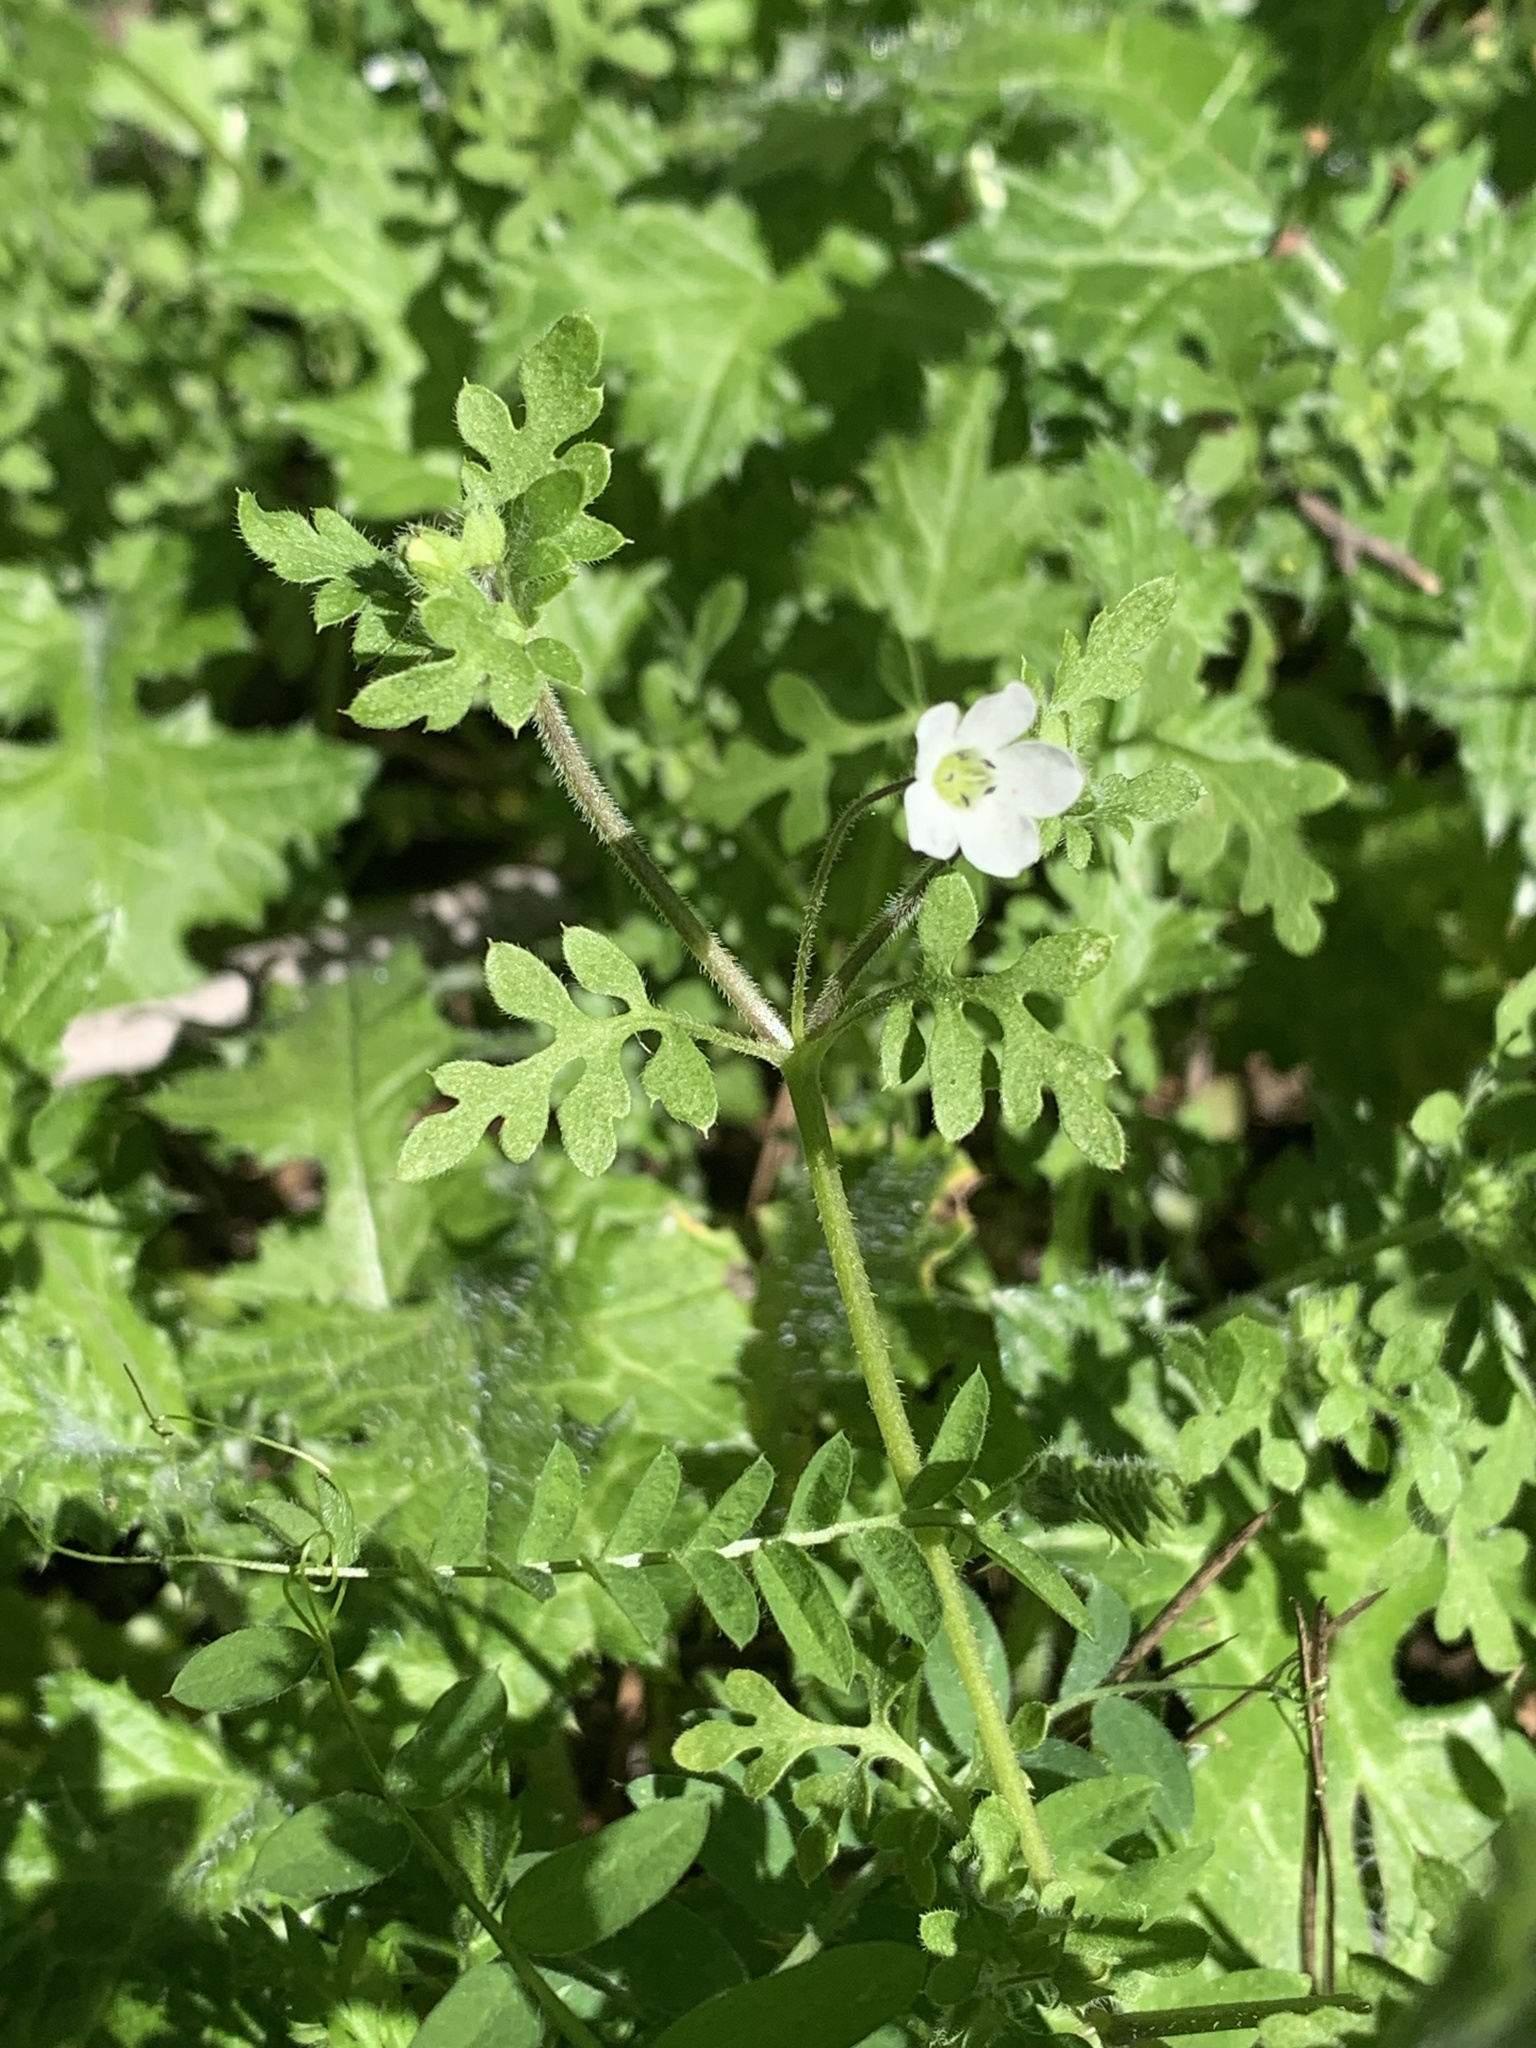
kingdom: Plantae
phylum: Tracheophyta
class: Magnoliopsida
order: Boraginales
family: Hydrophyllaceae
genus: Nemophila
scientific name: Nemophila heterophylla
